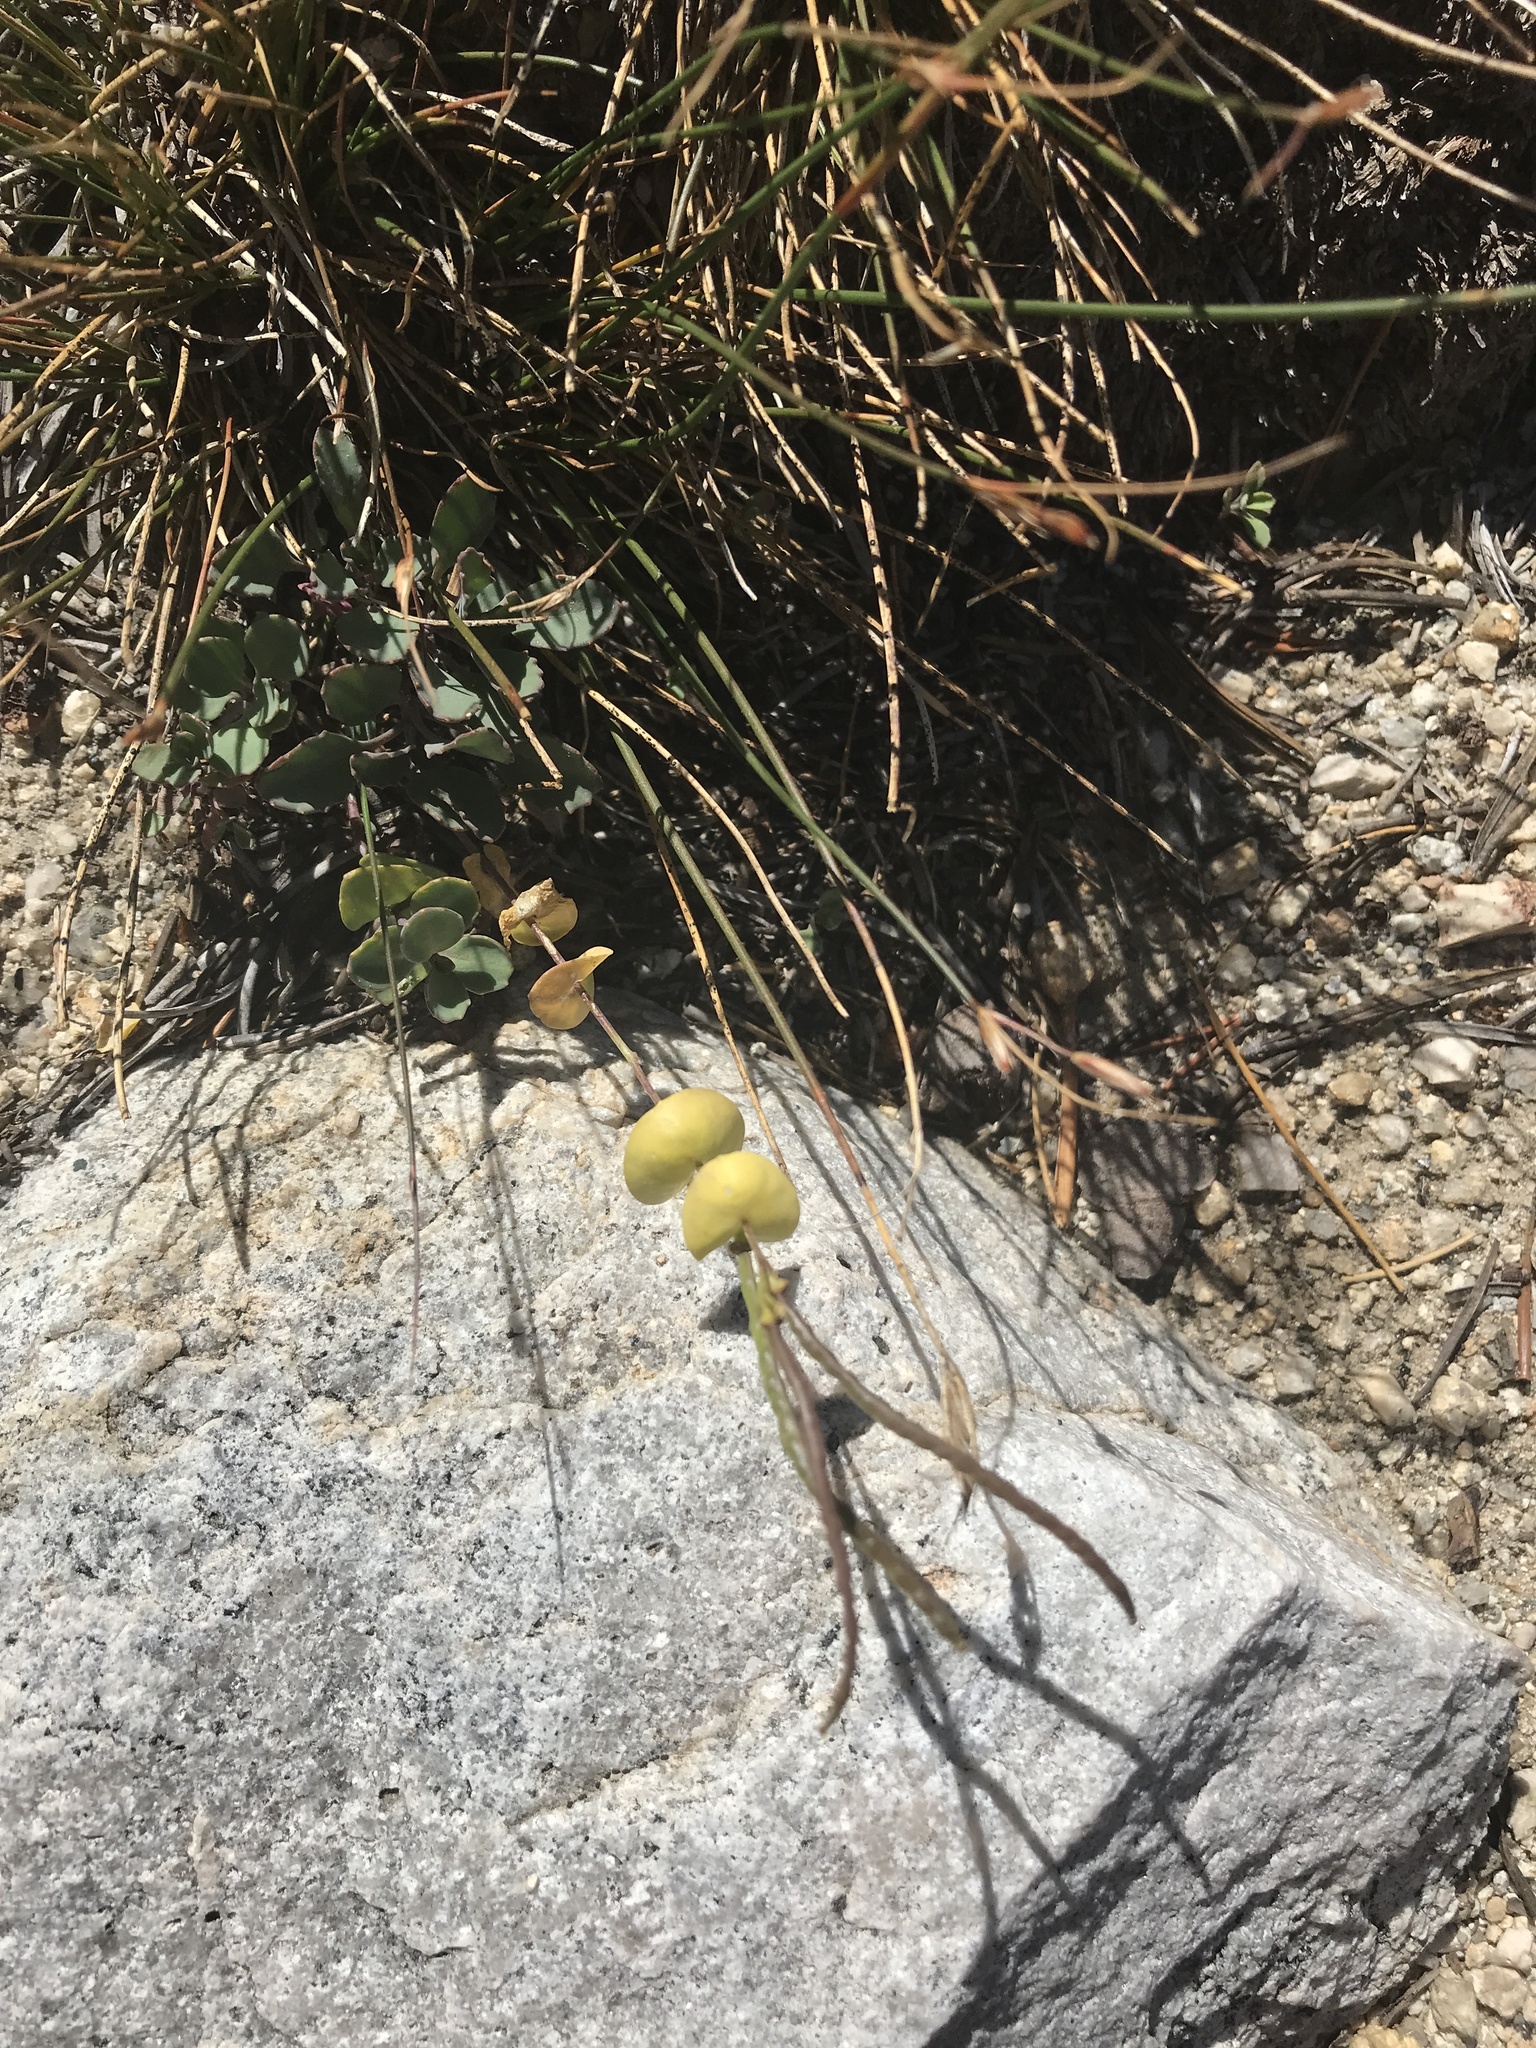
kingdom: Plantae
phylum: Tracheophyta
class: Magnoliopsida
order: Brassicales
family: Brassicaceae
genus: Streptanthus
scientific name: Streptanthus tortuosus
